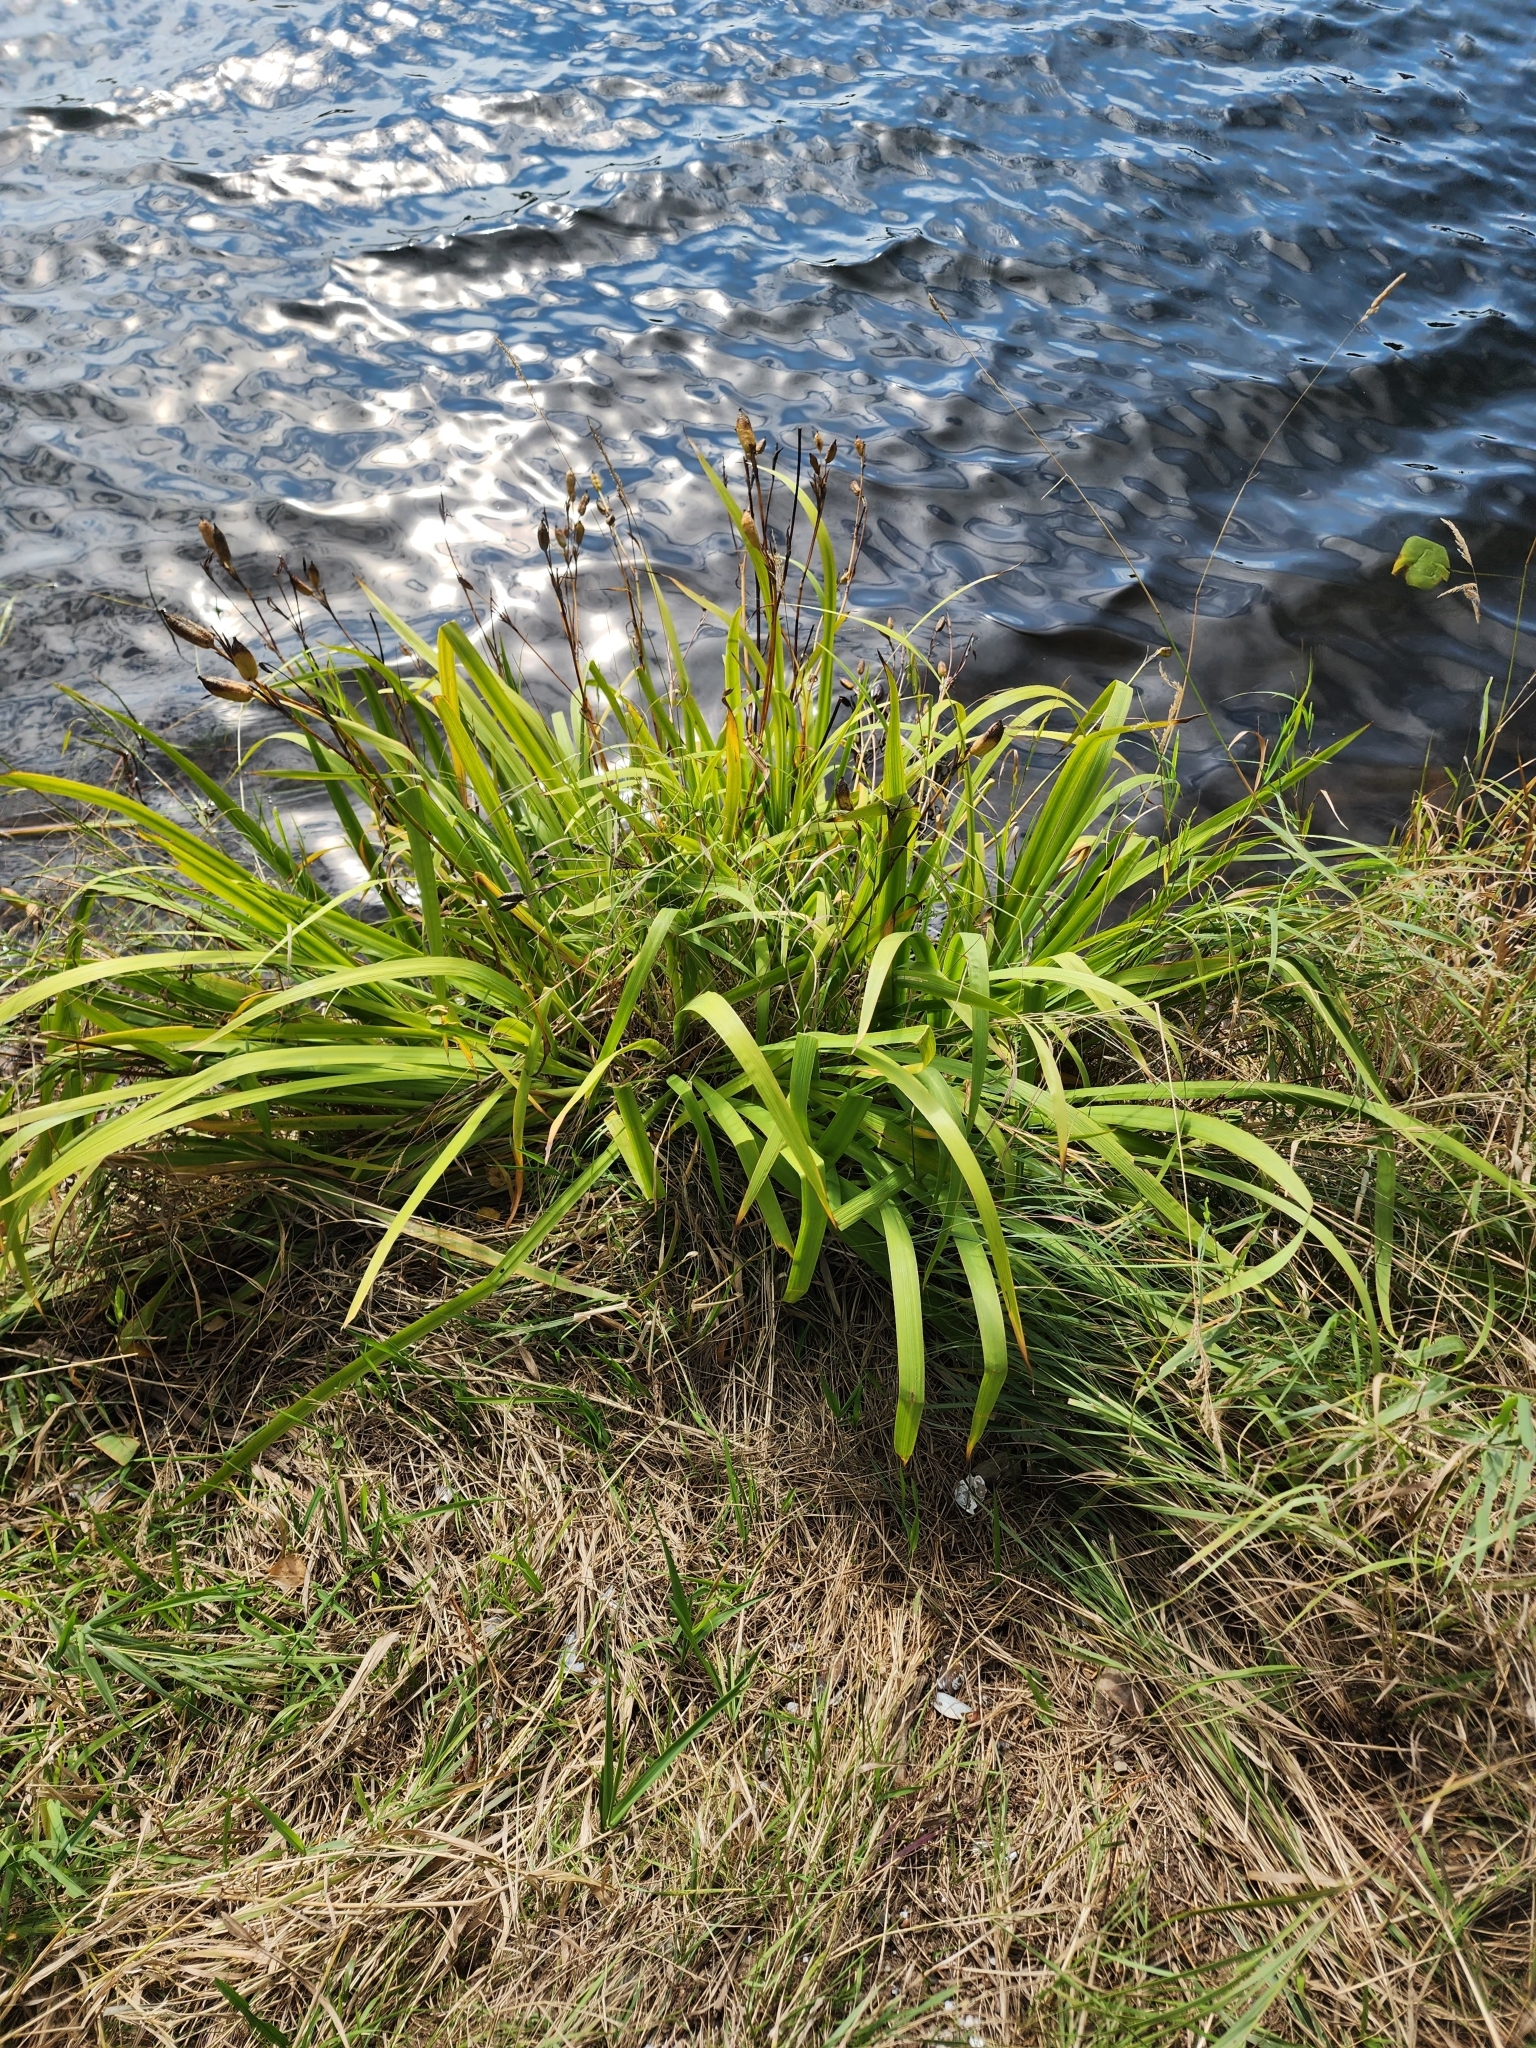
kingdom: Plantae
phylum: Tracheophyta
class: Liliopsida
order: Asparagales
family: Iridaceae
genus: Iris
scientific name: Iris versicolor
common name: Purple iris
